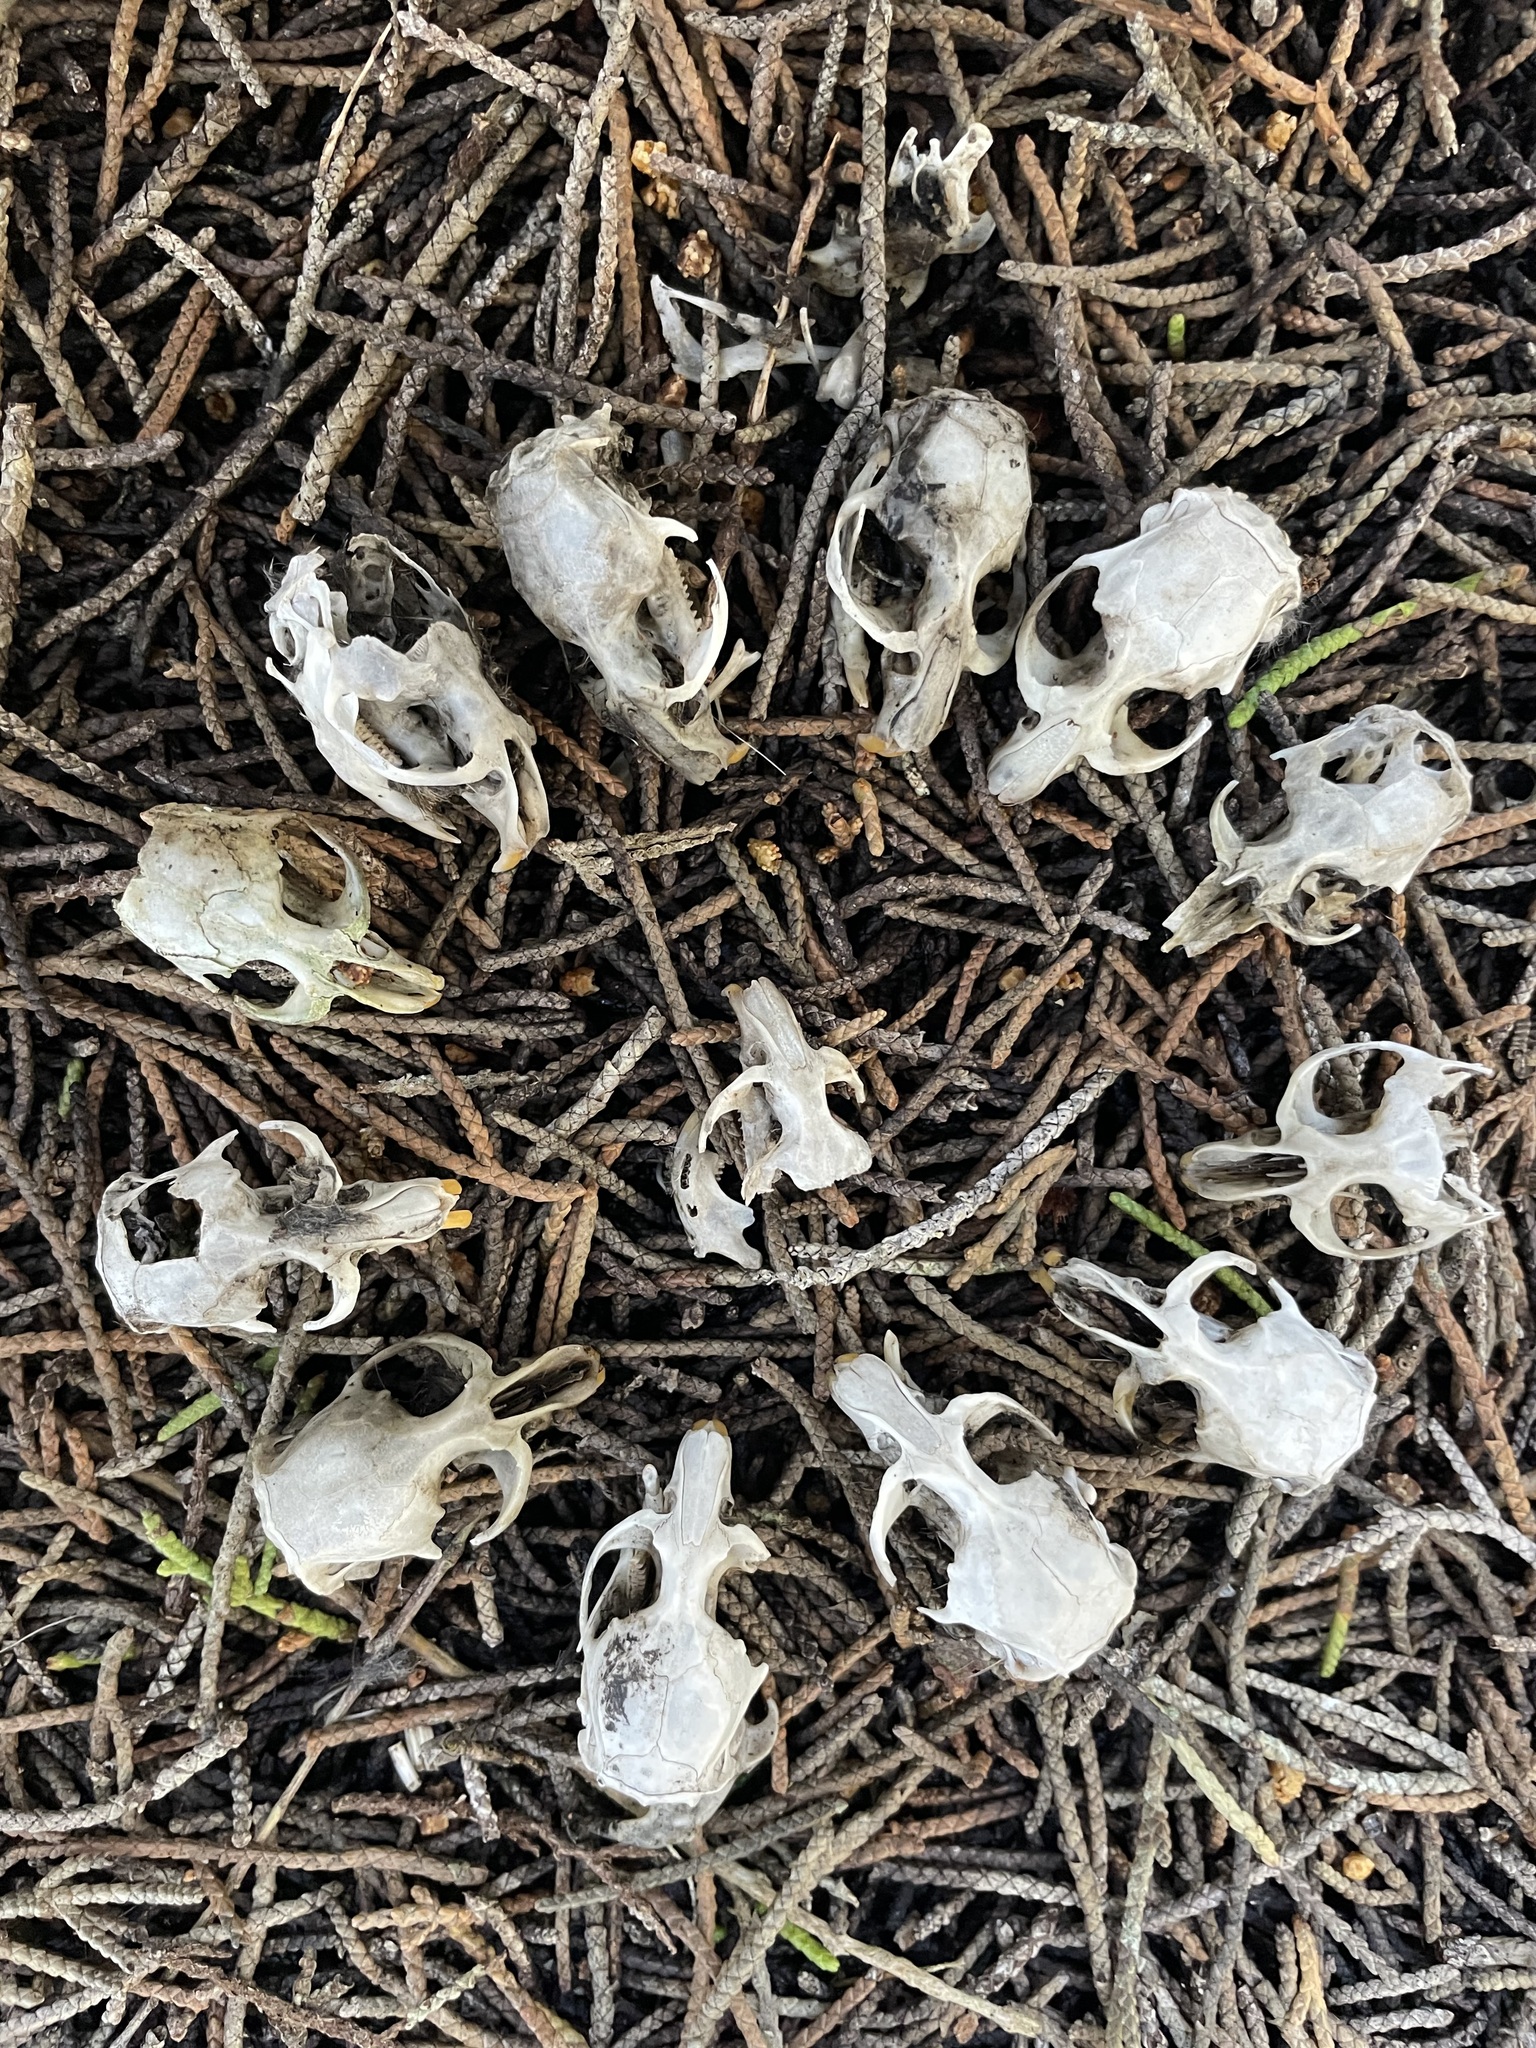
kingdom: Animalia
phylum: Chordata
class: Mammalia
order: Rodentia
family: Cricetidae
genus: Microtus
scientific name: Microtus californicus
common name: California vole
